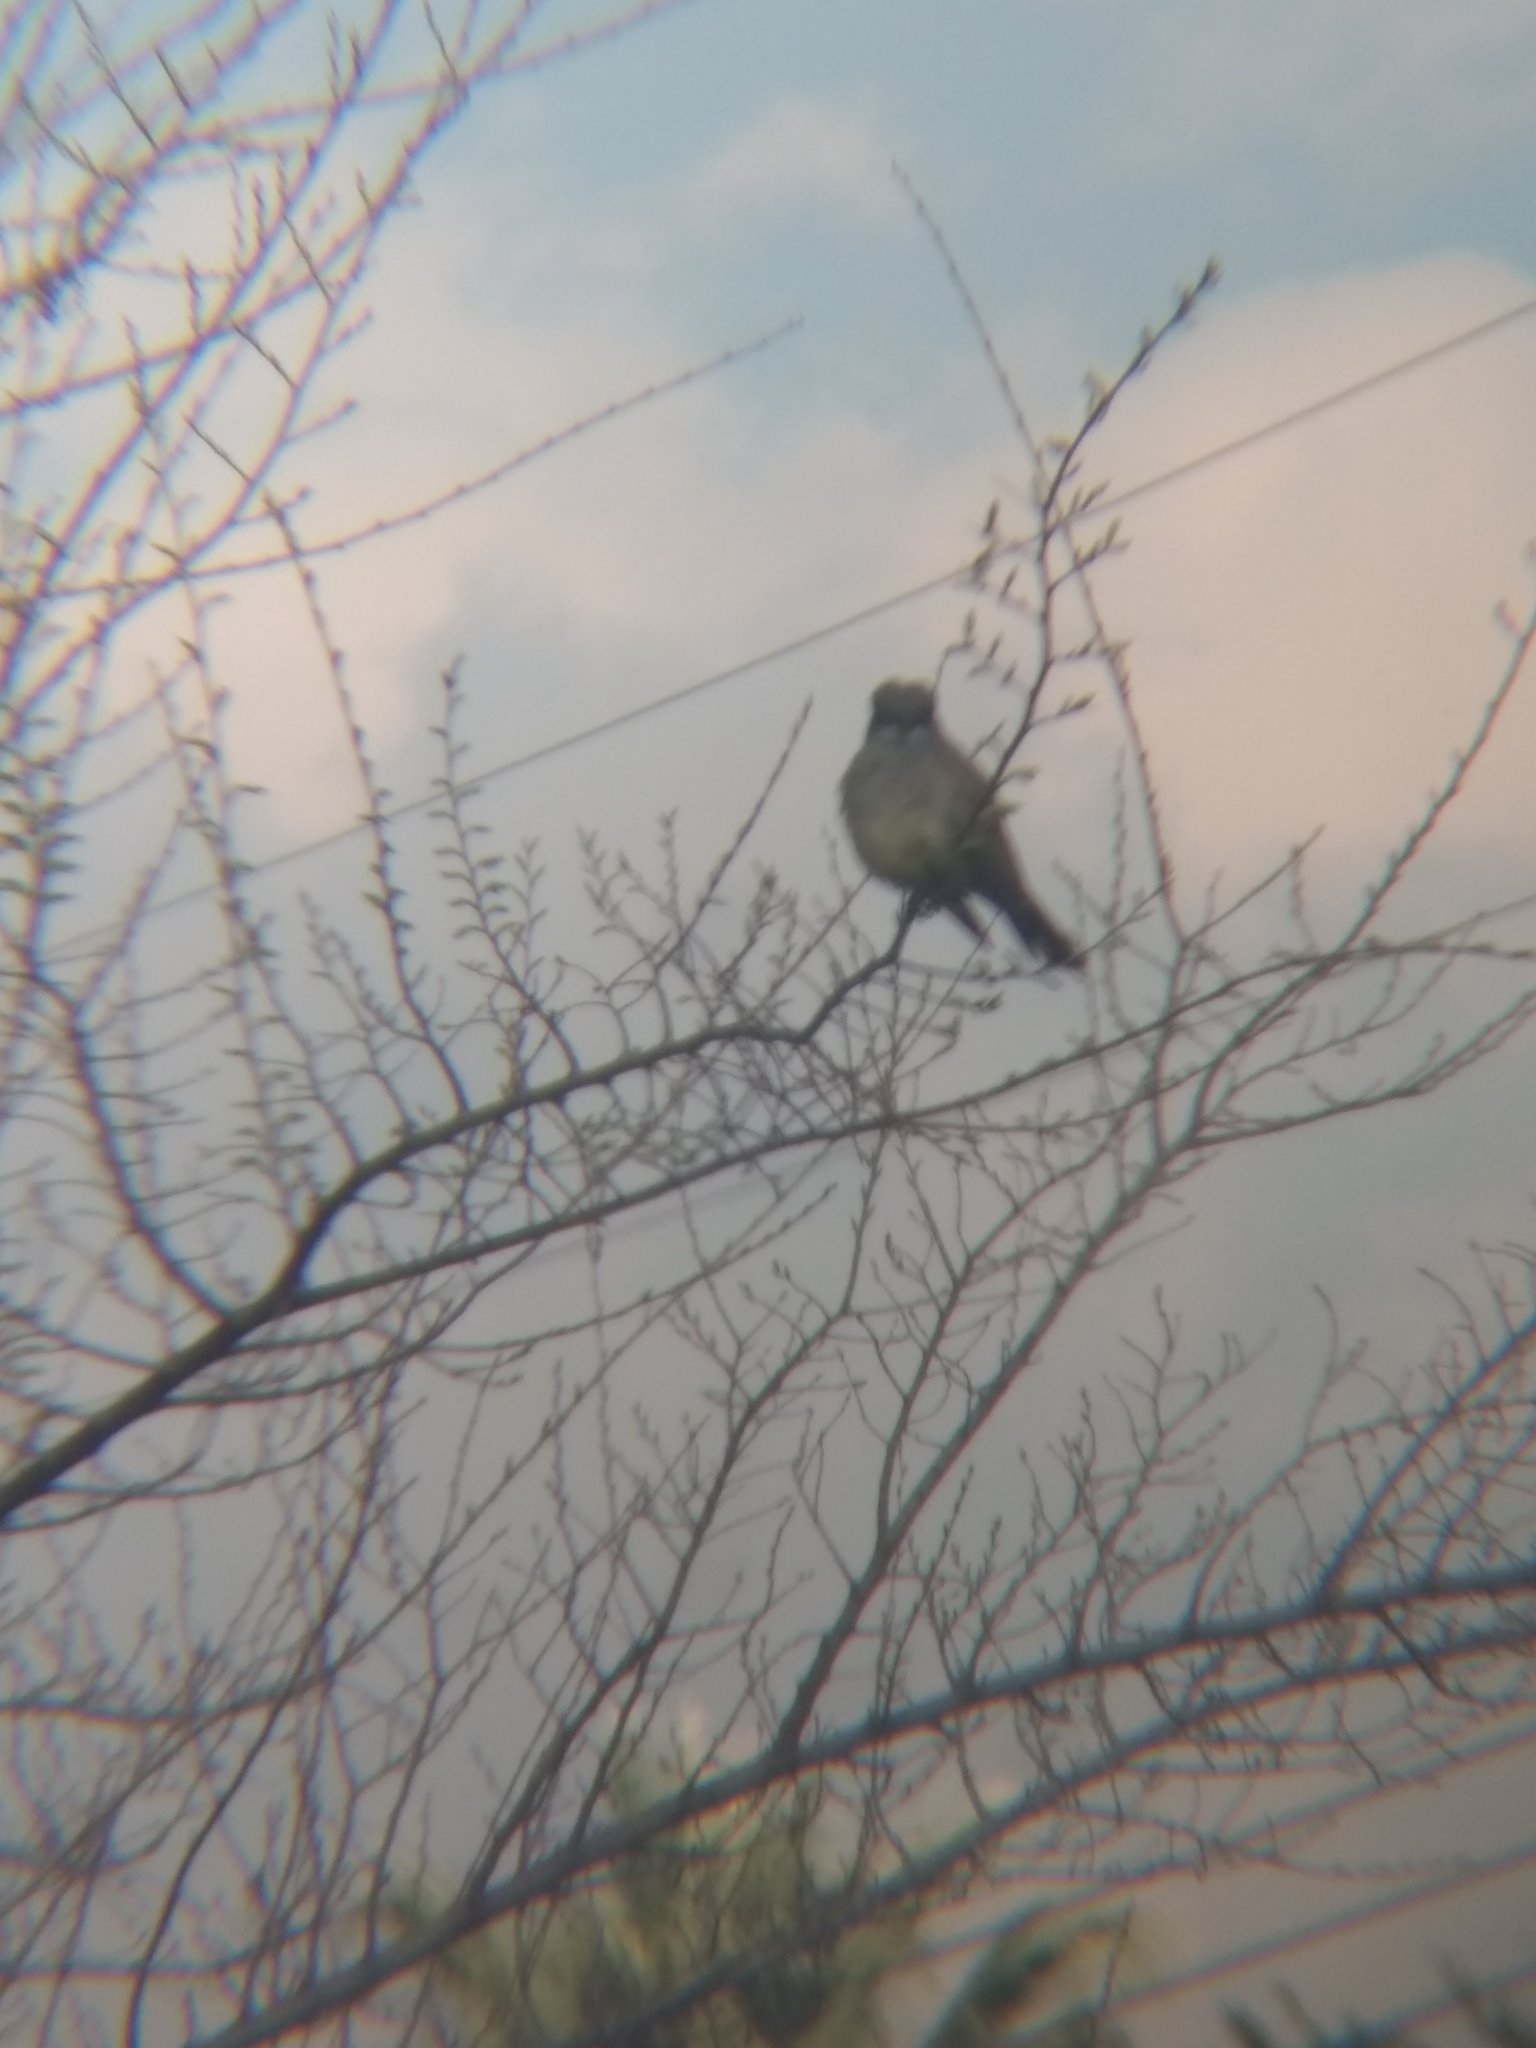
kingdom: Animalia
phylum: Chordata
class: Aves
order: Passeriformes
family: Tyrannidae
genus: Tyrannus
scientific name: Tyrannus vociferans
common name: Cassin's kingbird
